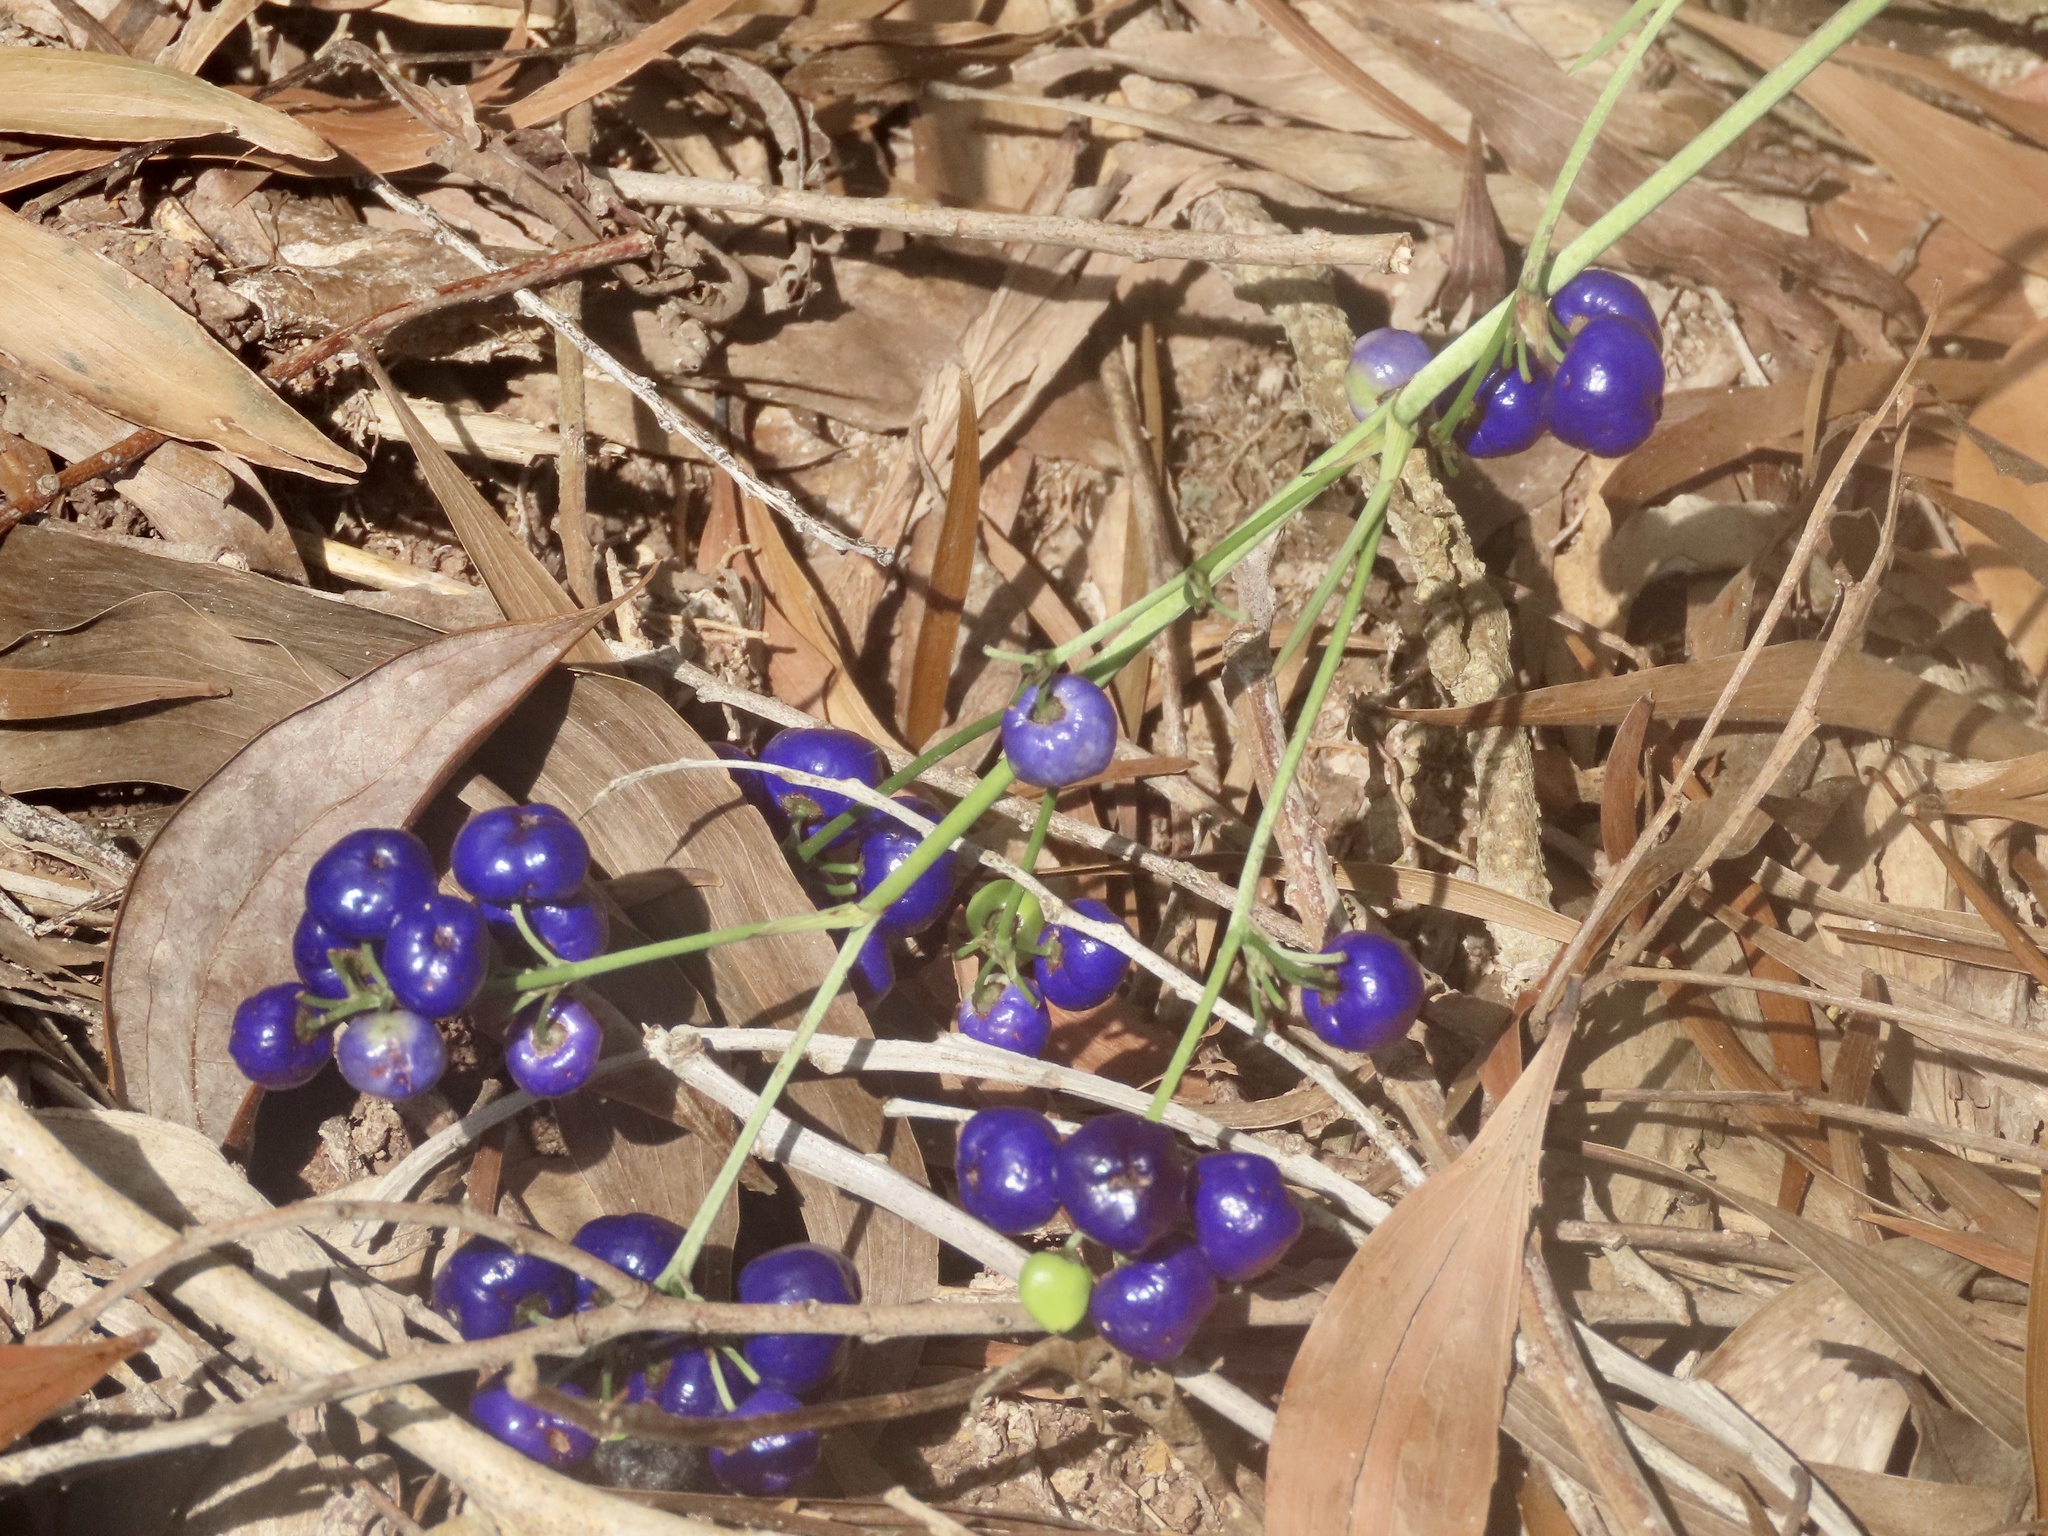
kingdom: Plantae
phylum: Tracheophyta
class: Liliopsida
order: Asparagales
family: Asphodelaceae
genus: Dianella
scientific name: Dianella ensifolia
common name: New zealand lilyplant
